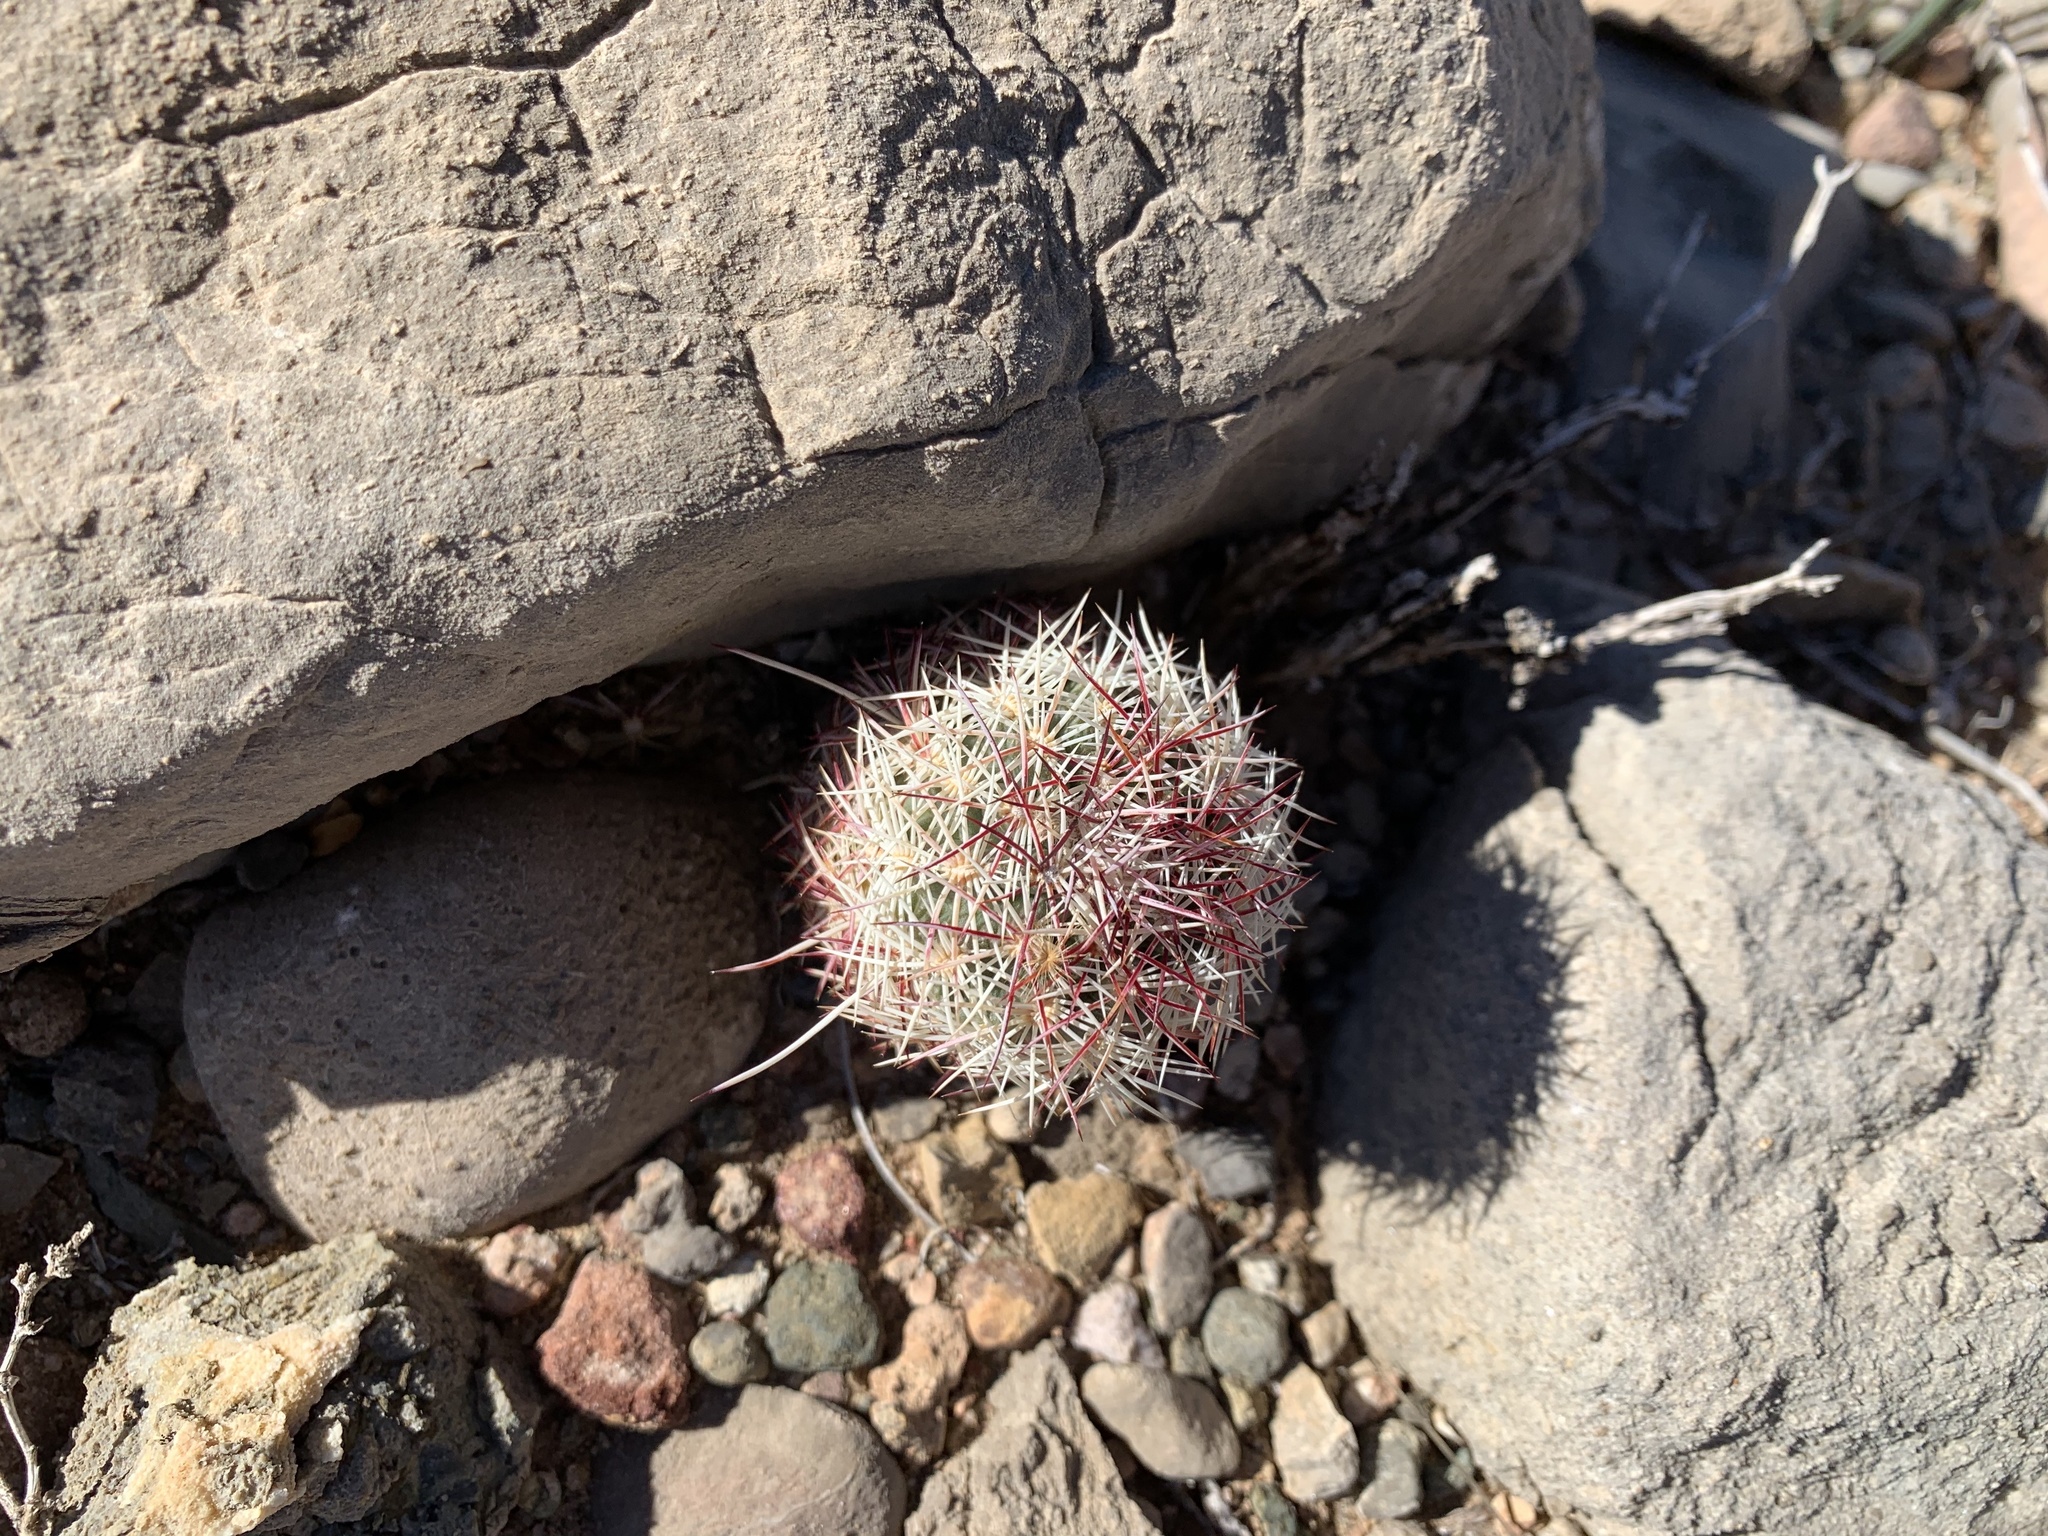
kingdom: Plantae
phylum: Tracheophyta
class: Magnoliopsida
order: Caryophyllales
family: Cactaceae
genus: Echinocereus
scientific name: Echinocereus viridiflorus
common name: Nylon hedgehog cactus
